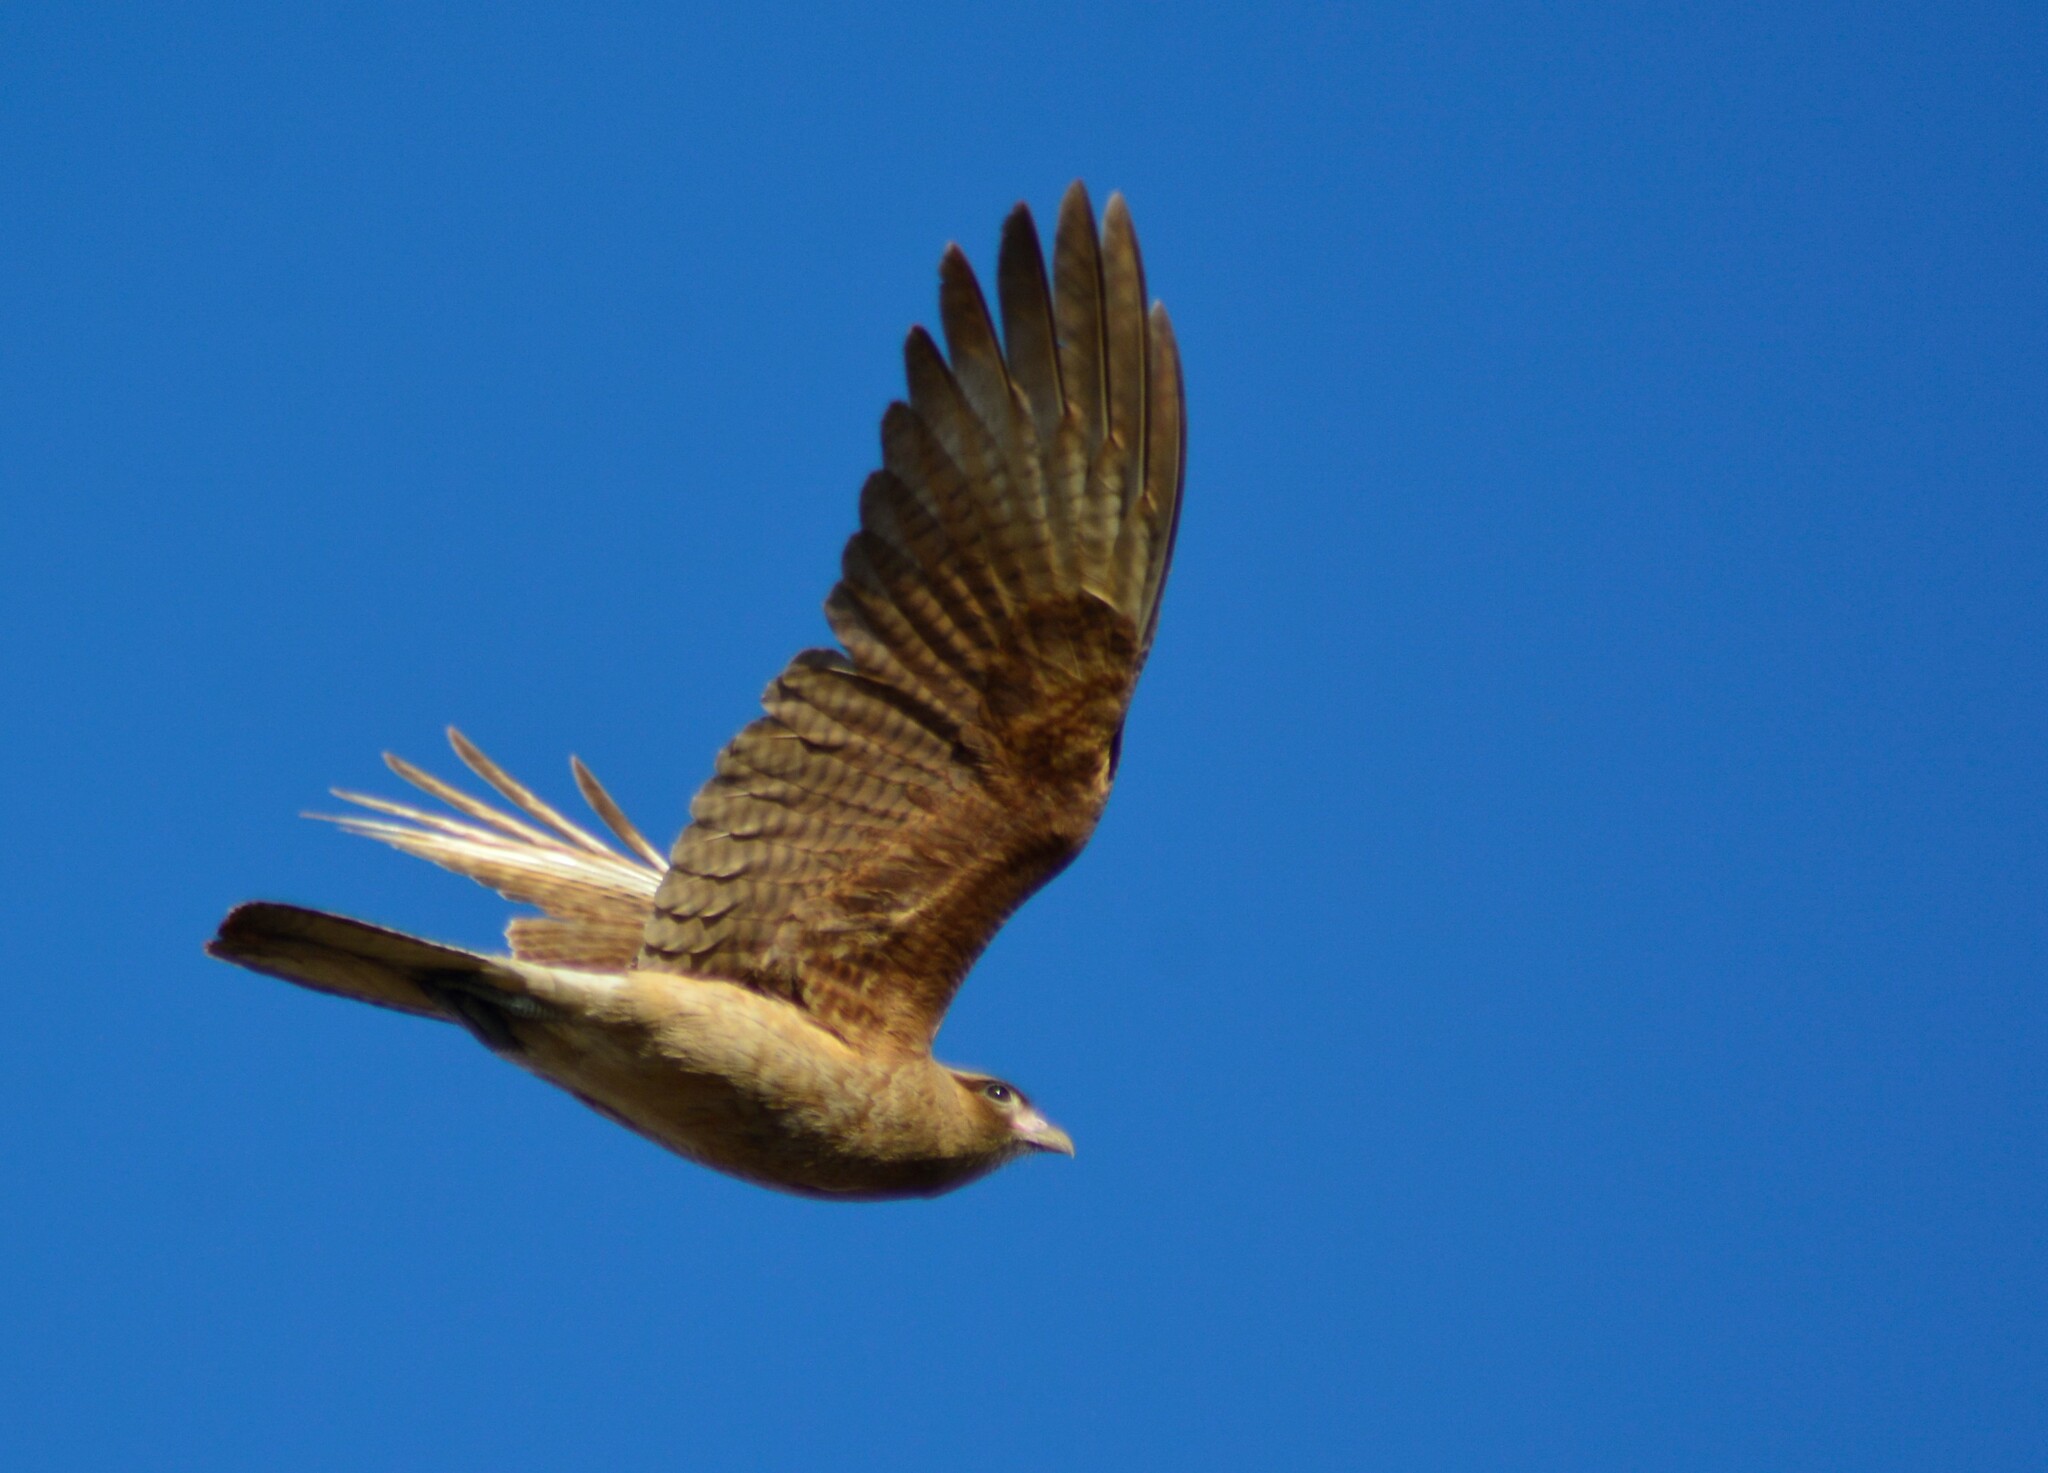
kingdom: Animalia
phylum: Chordata
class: Aves
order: Falconiformes
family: Falconidae
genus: Daptrius
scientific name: Daptrius
